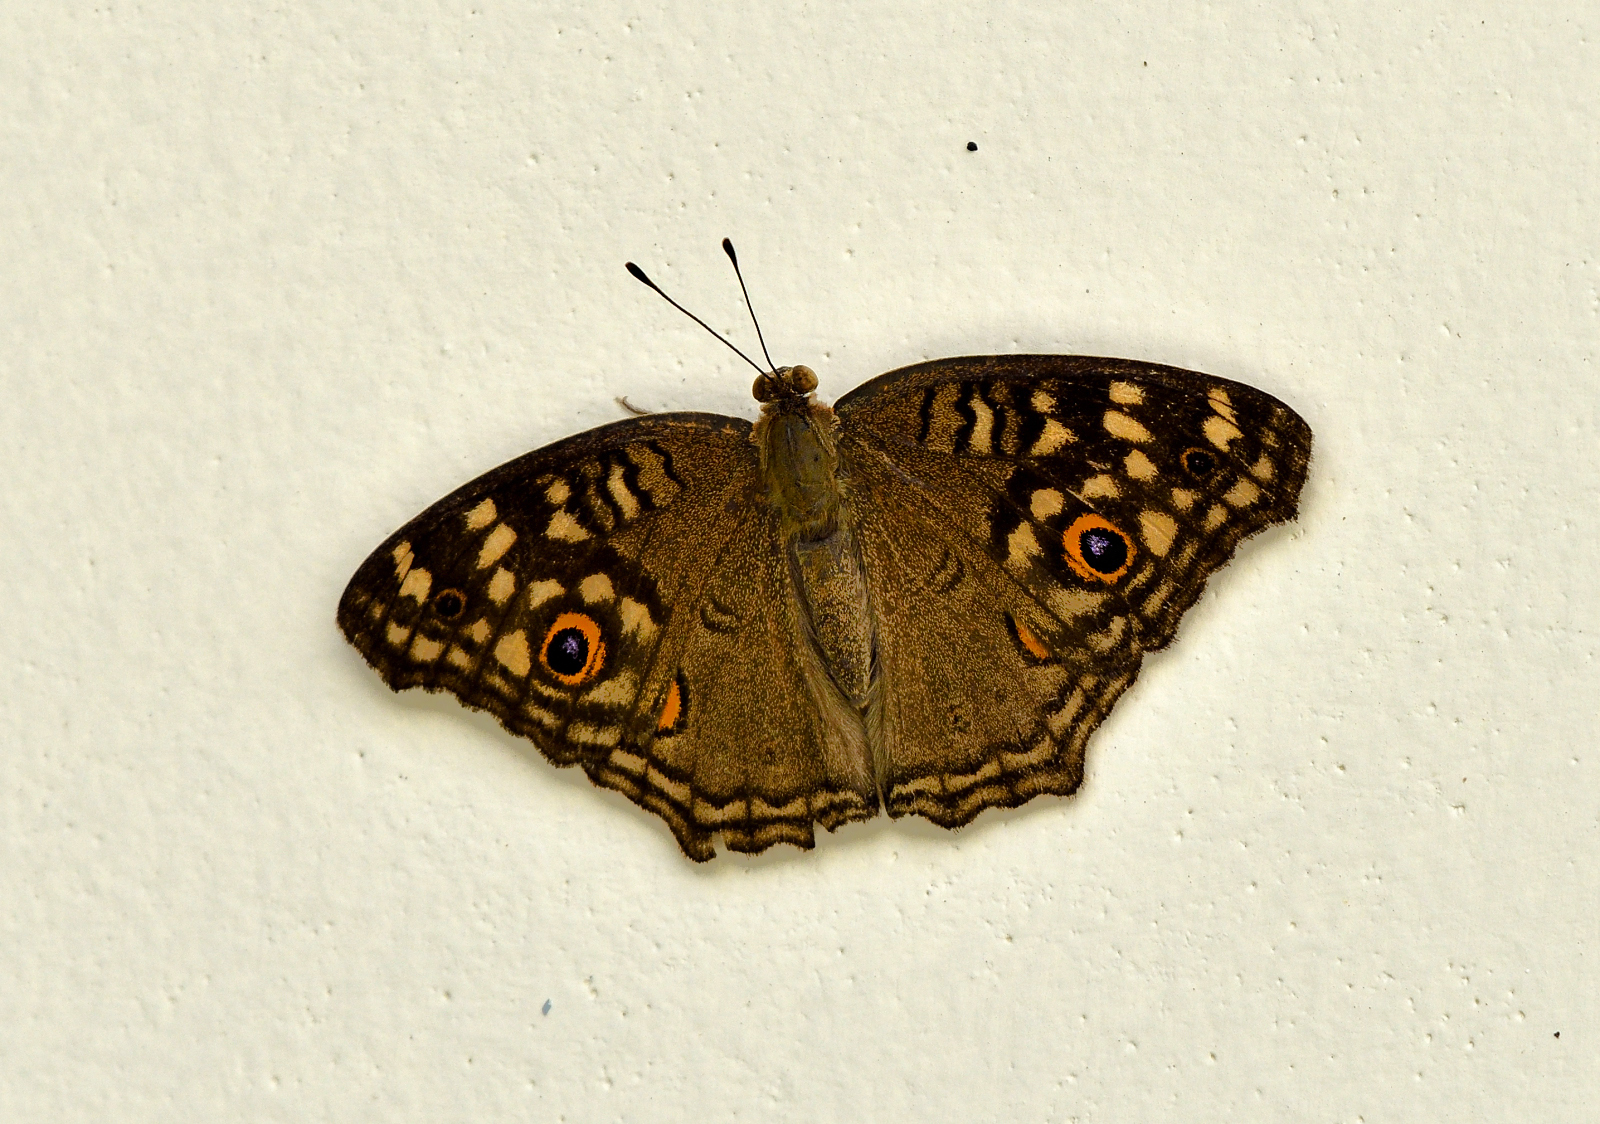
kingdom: Animalia
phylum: Arthropoda
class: Insecta
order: Lepidoptera
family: Nymphalidae
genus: Junonia
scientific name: Junonia lemonias
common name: Lemon pansy
